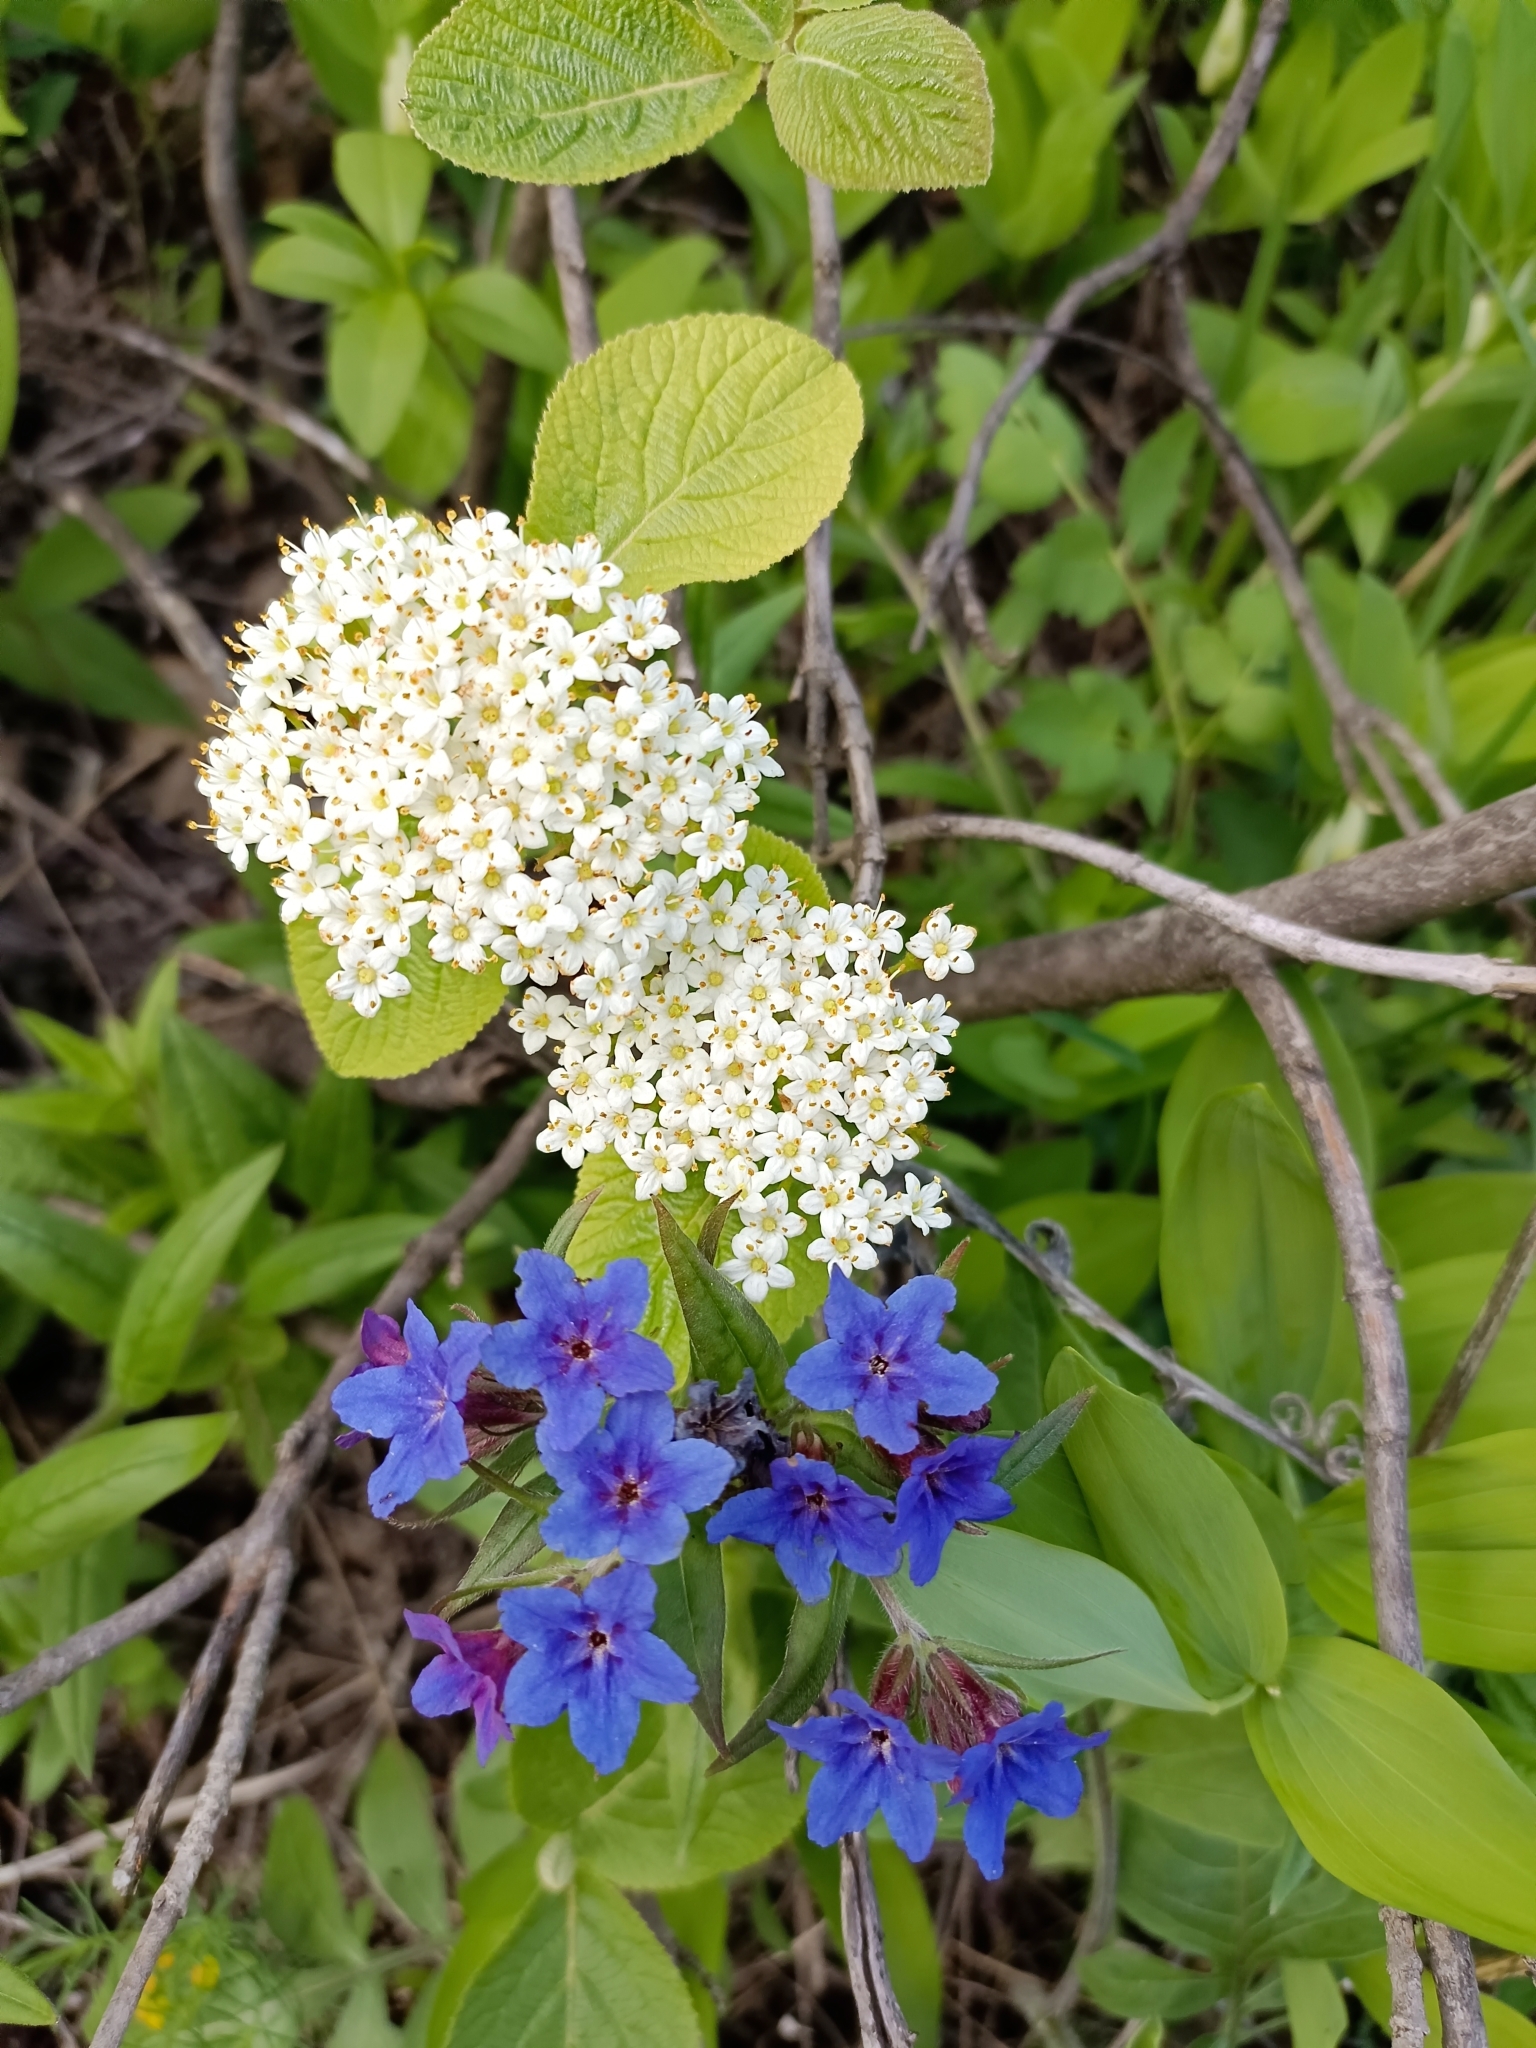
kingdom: Plantae
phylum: Tracheophyta
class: Magnoliopsida
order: Dipsacales
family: Viburnaceae
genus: Viburnum
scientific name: Viburnum lantana
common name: Wayfaring tree
